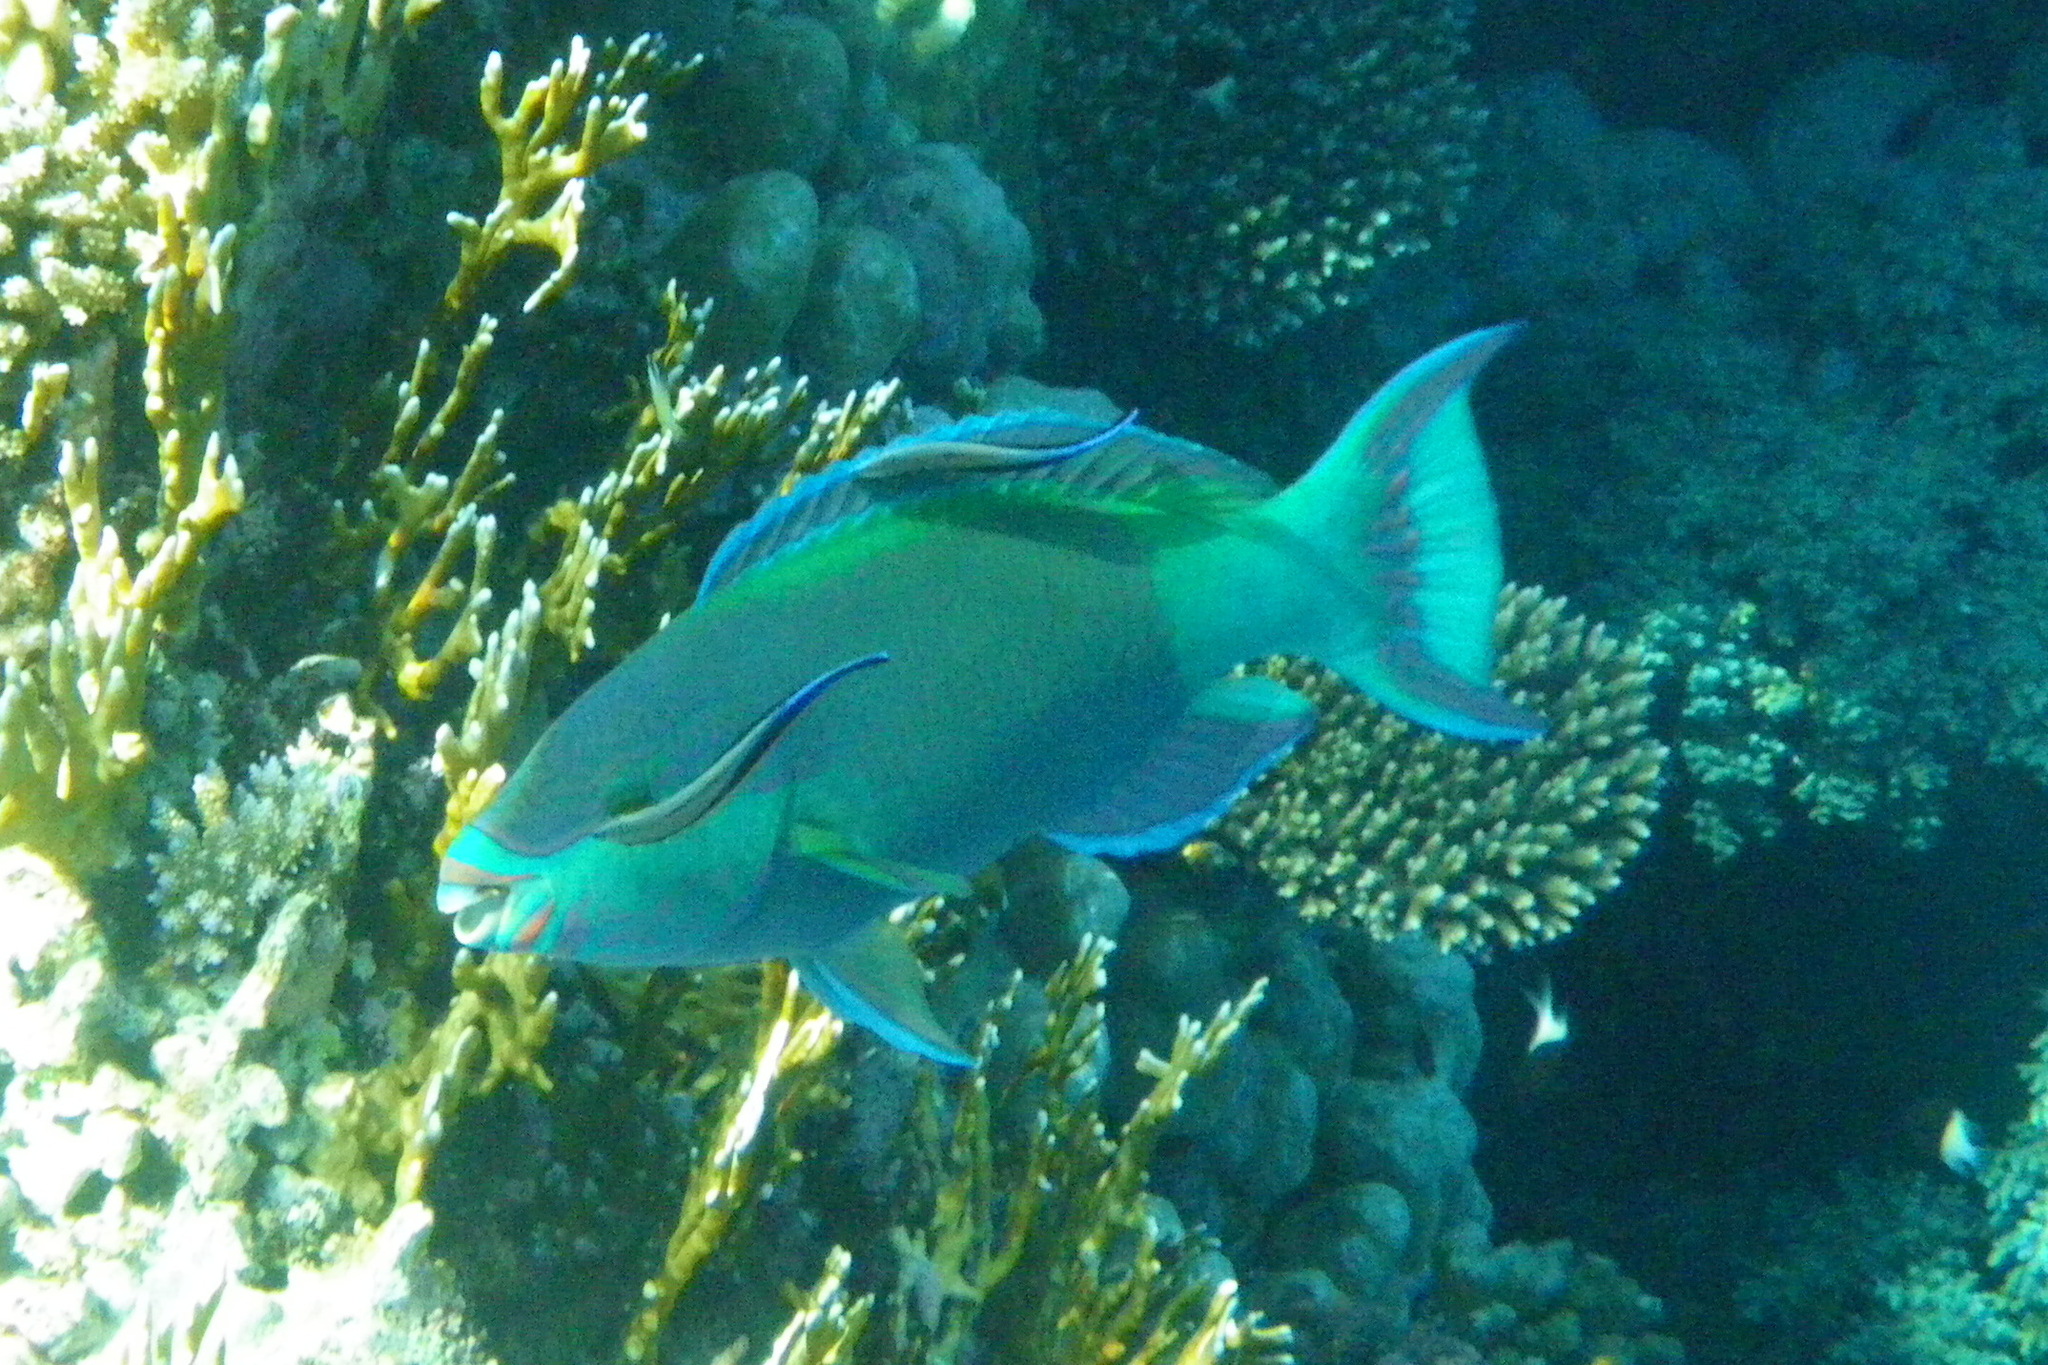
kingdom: Animalia
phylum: Chordata
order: Perciformes
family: Scaridae
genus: Scarus
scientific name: Scarus frenatus
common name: Bridled parrotfish
